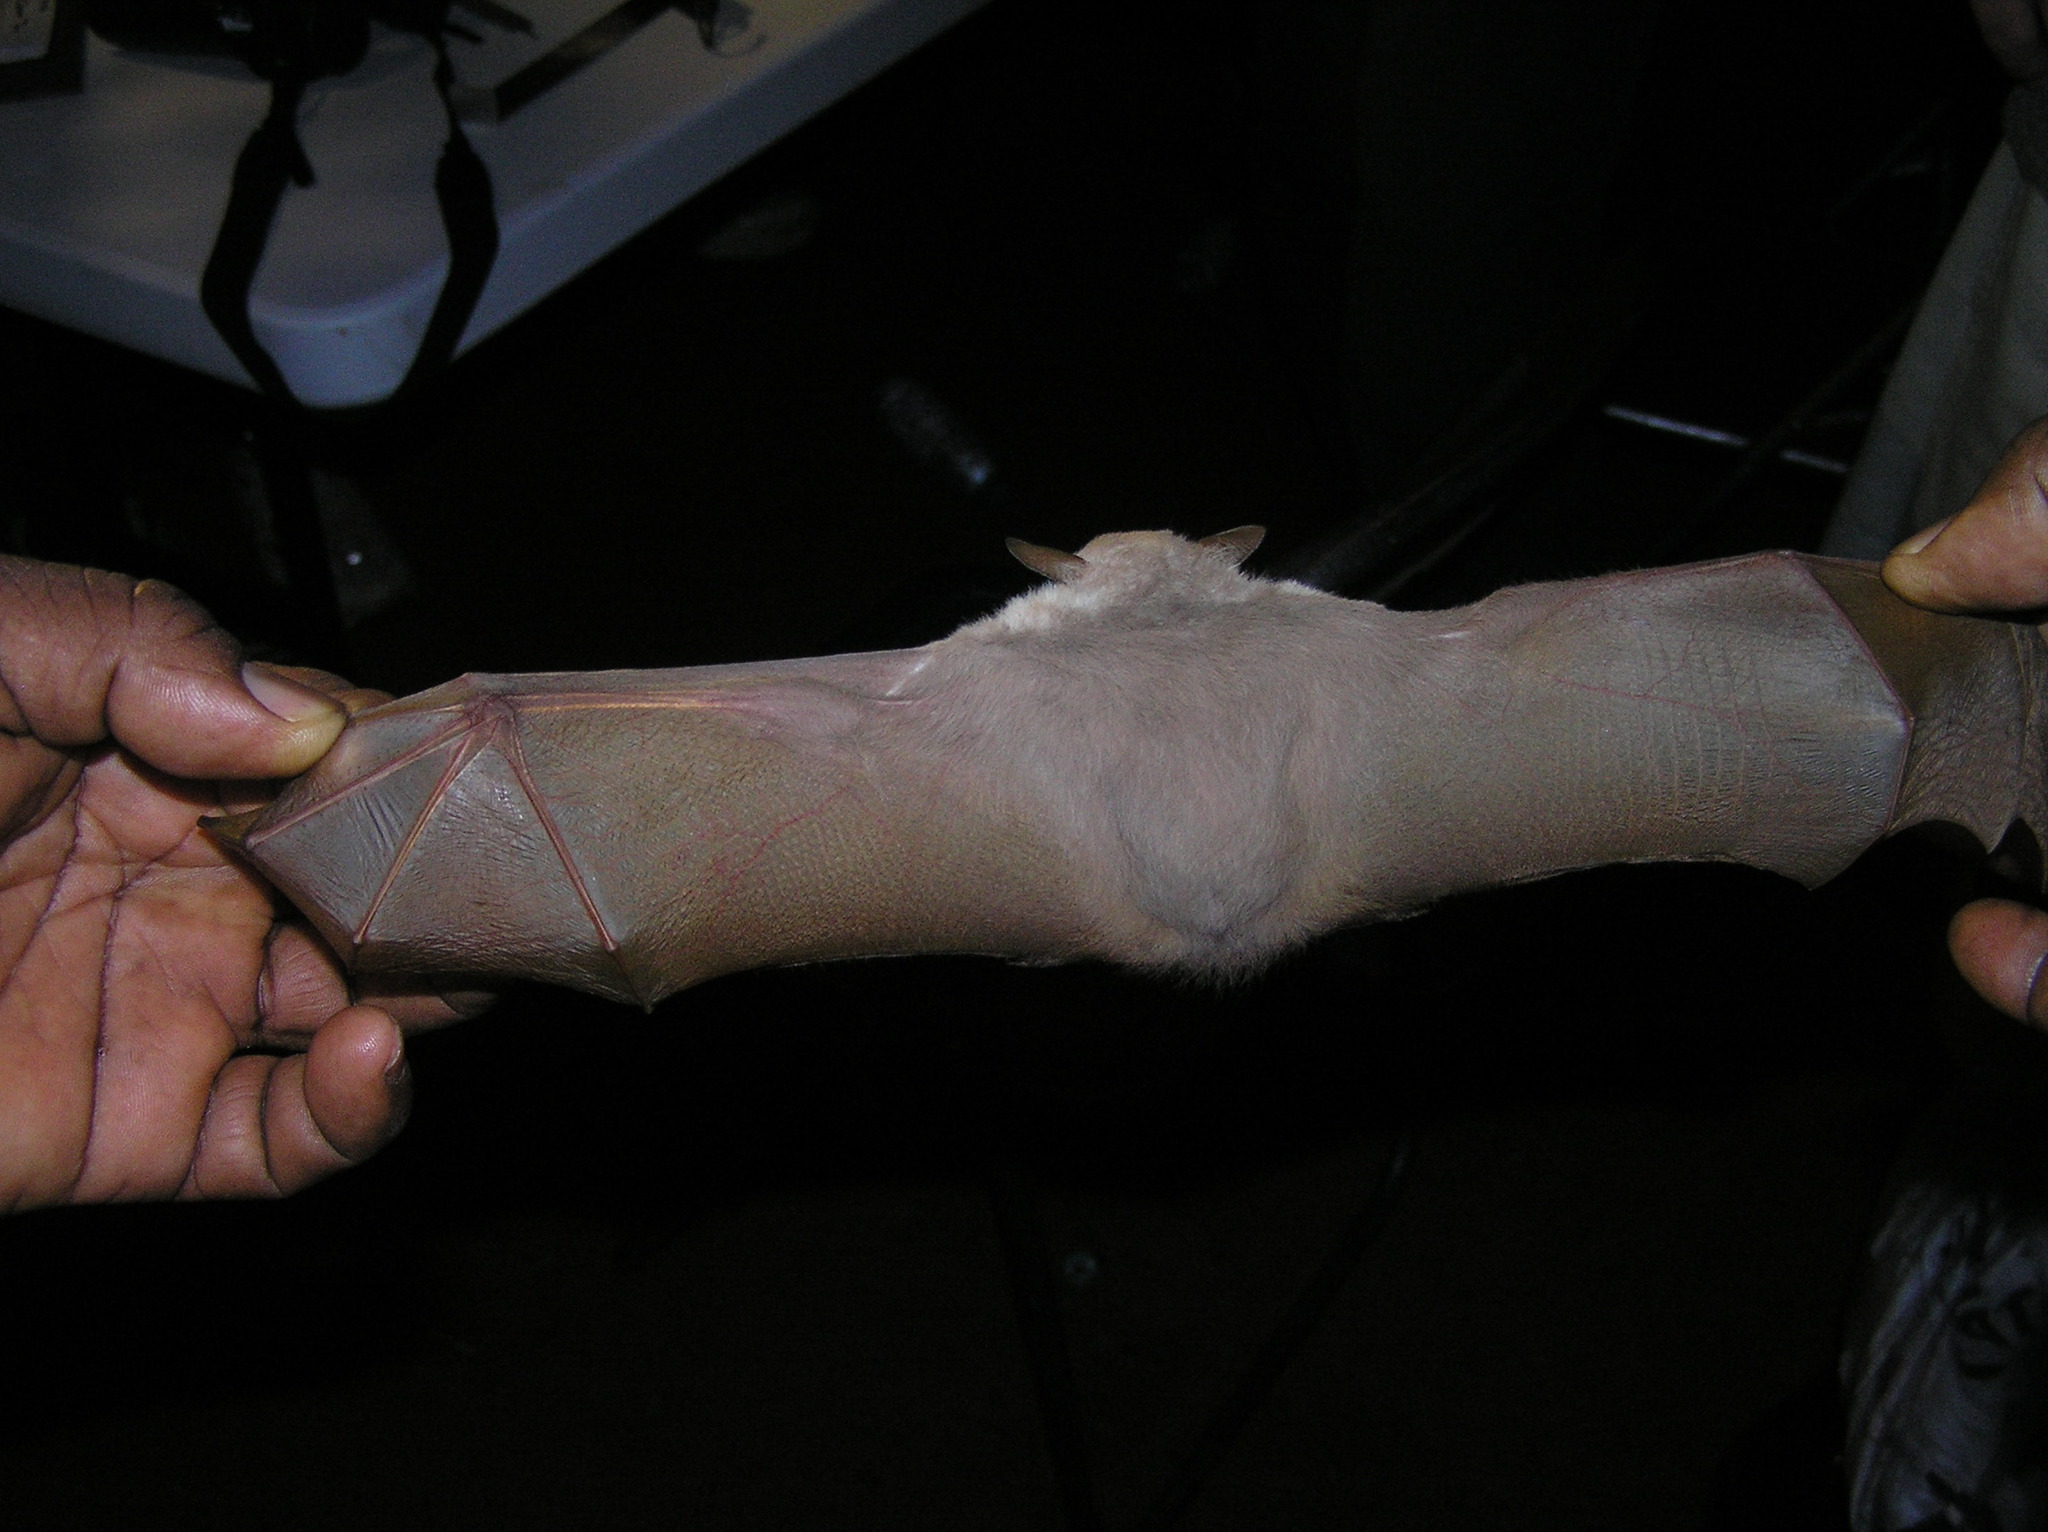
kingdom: Animalia
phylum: Chordata
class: Mammalia
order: Chiroptera
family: Pteropodidae
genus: Nanonycteris
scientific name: Nanonycteris veldkampii
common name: Veldkamp's dwarf epauletted fruit bat
